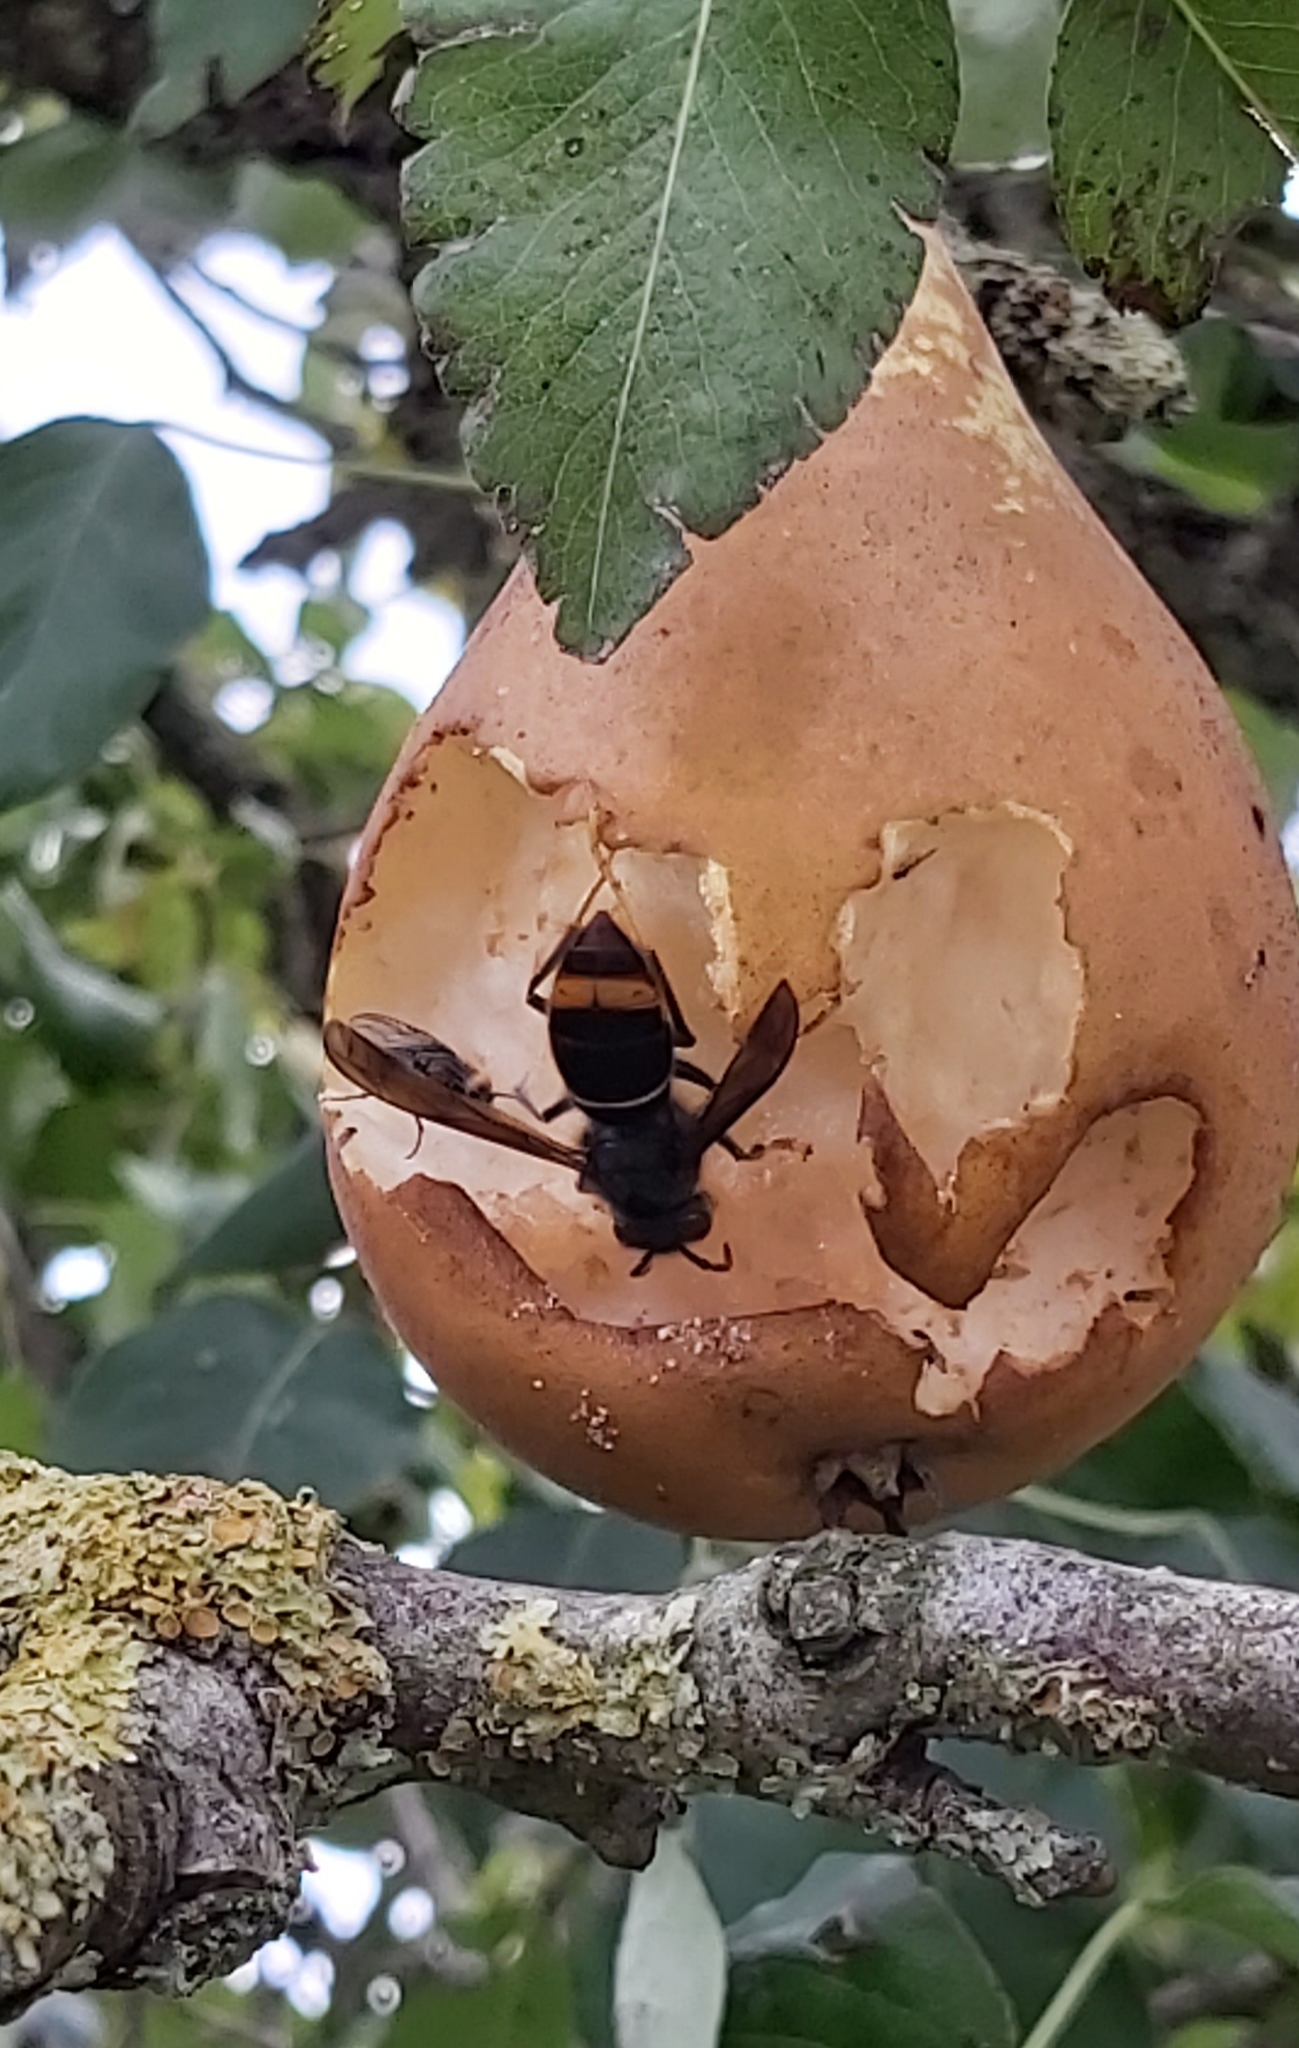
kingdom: Animalia
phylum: Arthropoda
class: Insecta
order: Hymenoptera
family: Vespidae
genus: Vespa
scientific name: Vespa velutina
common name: Asian hornet
